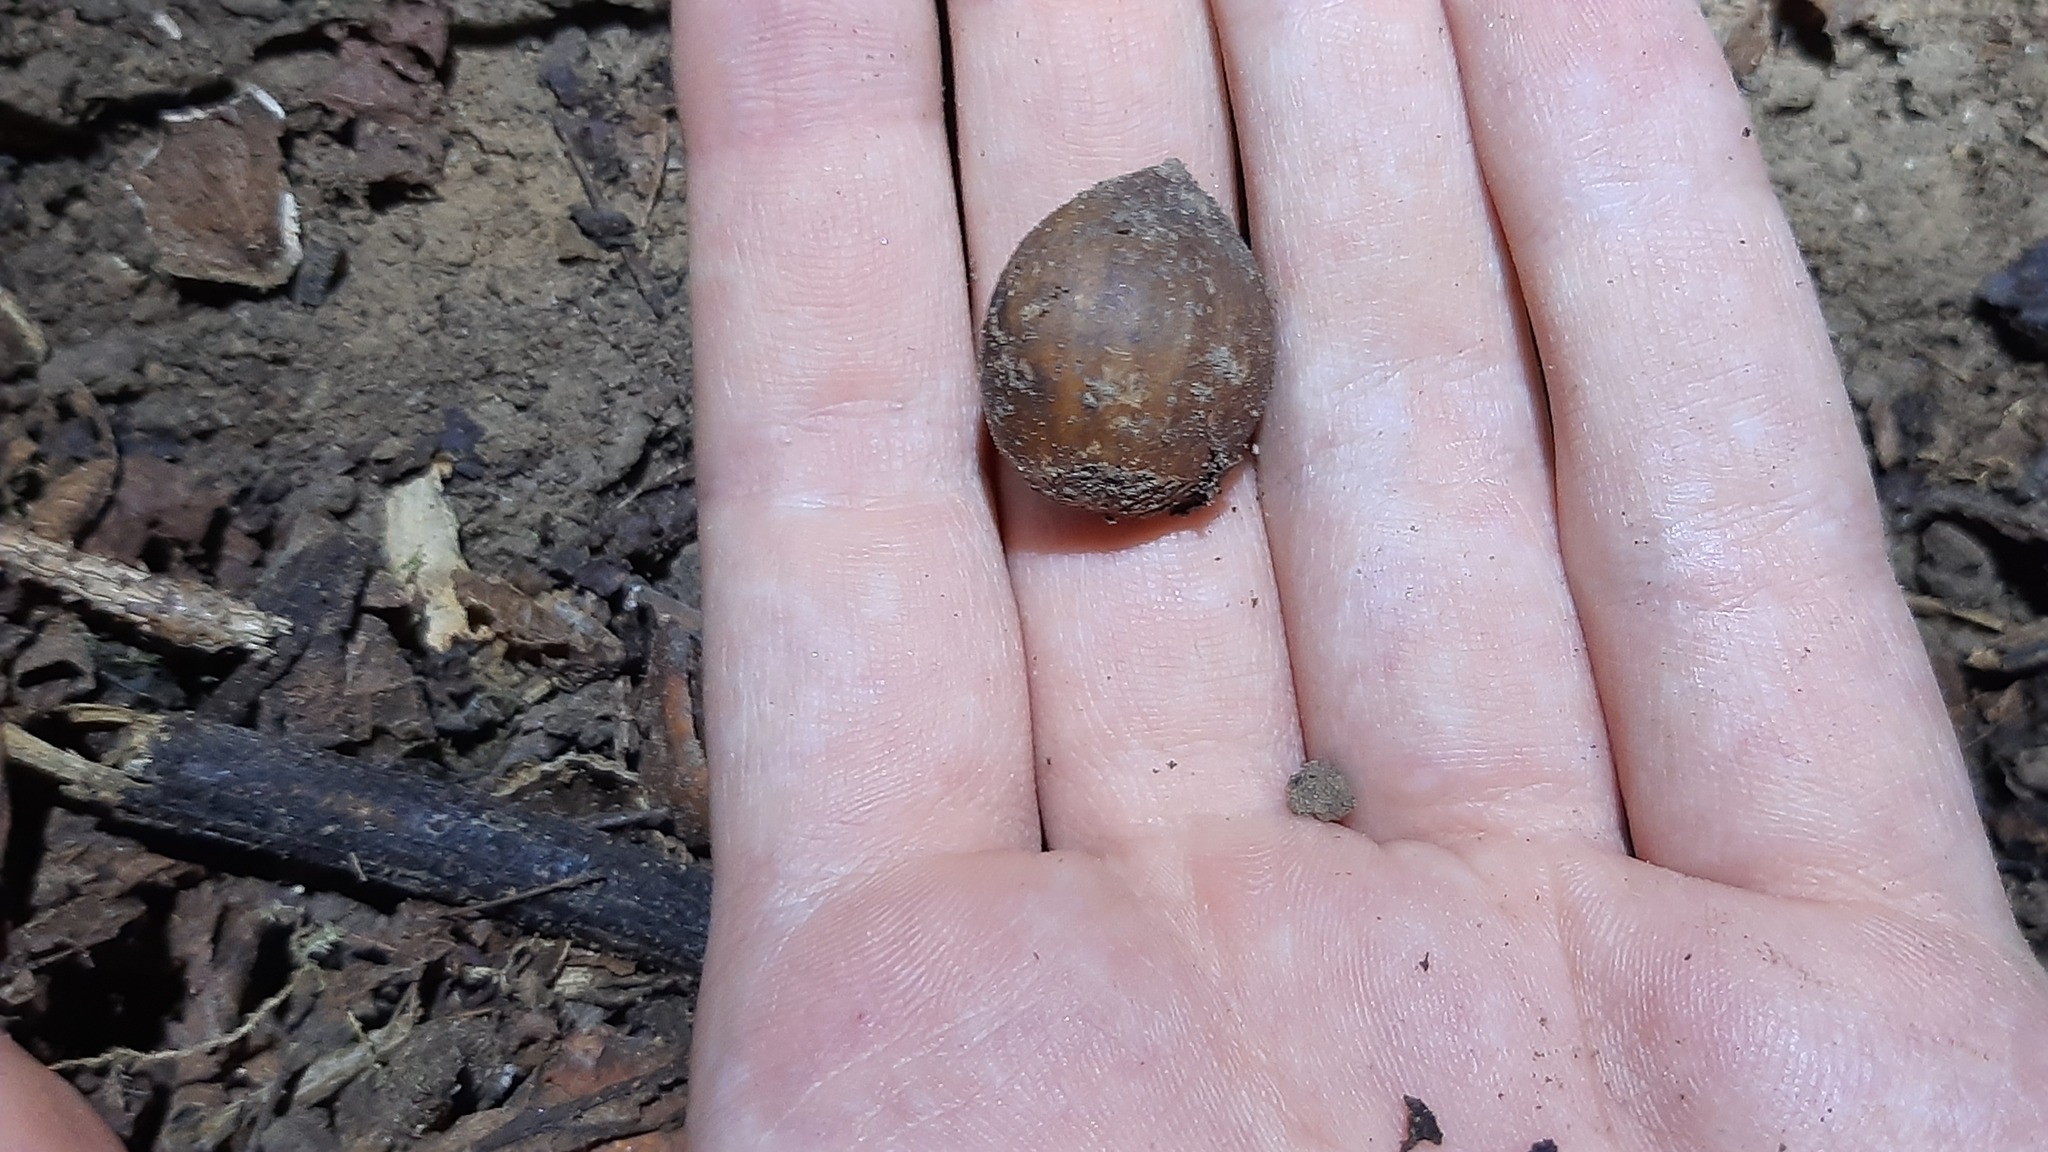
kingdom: Plantae
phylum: Tracheophyta
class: Magnoliopsida
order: Fagales
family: Betulaceae
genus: Corylus
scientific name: Corylus avellana
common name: European hazel
